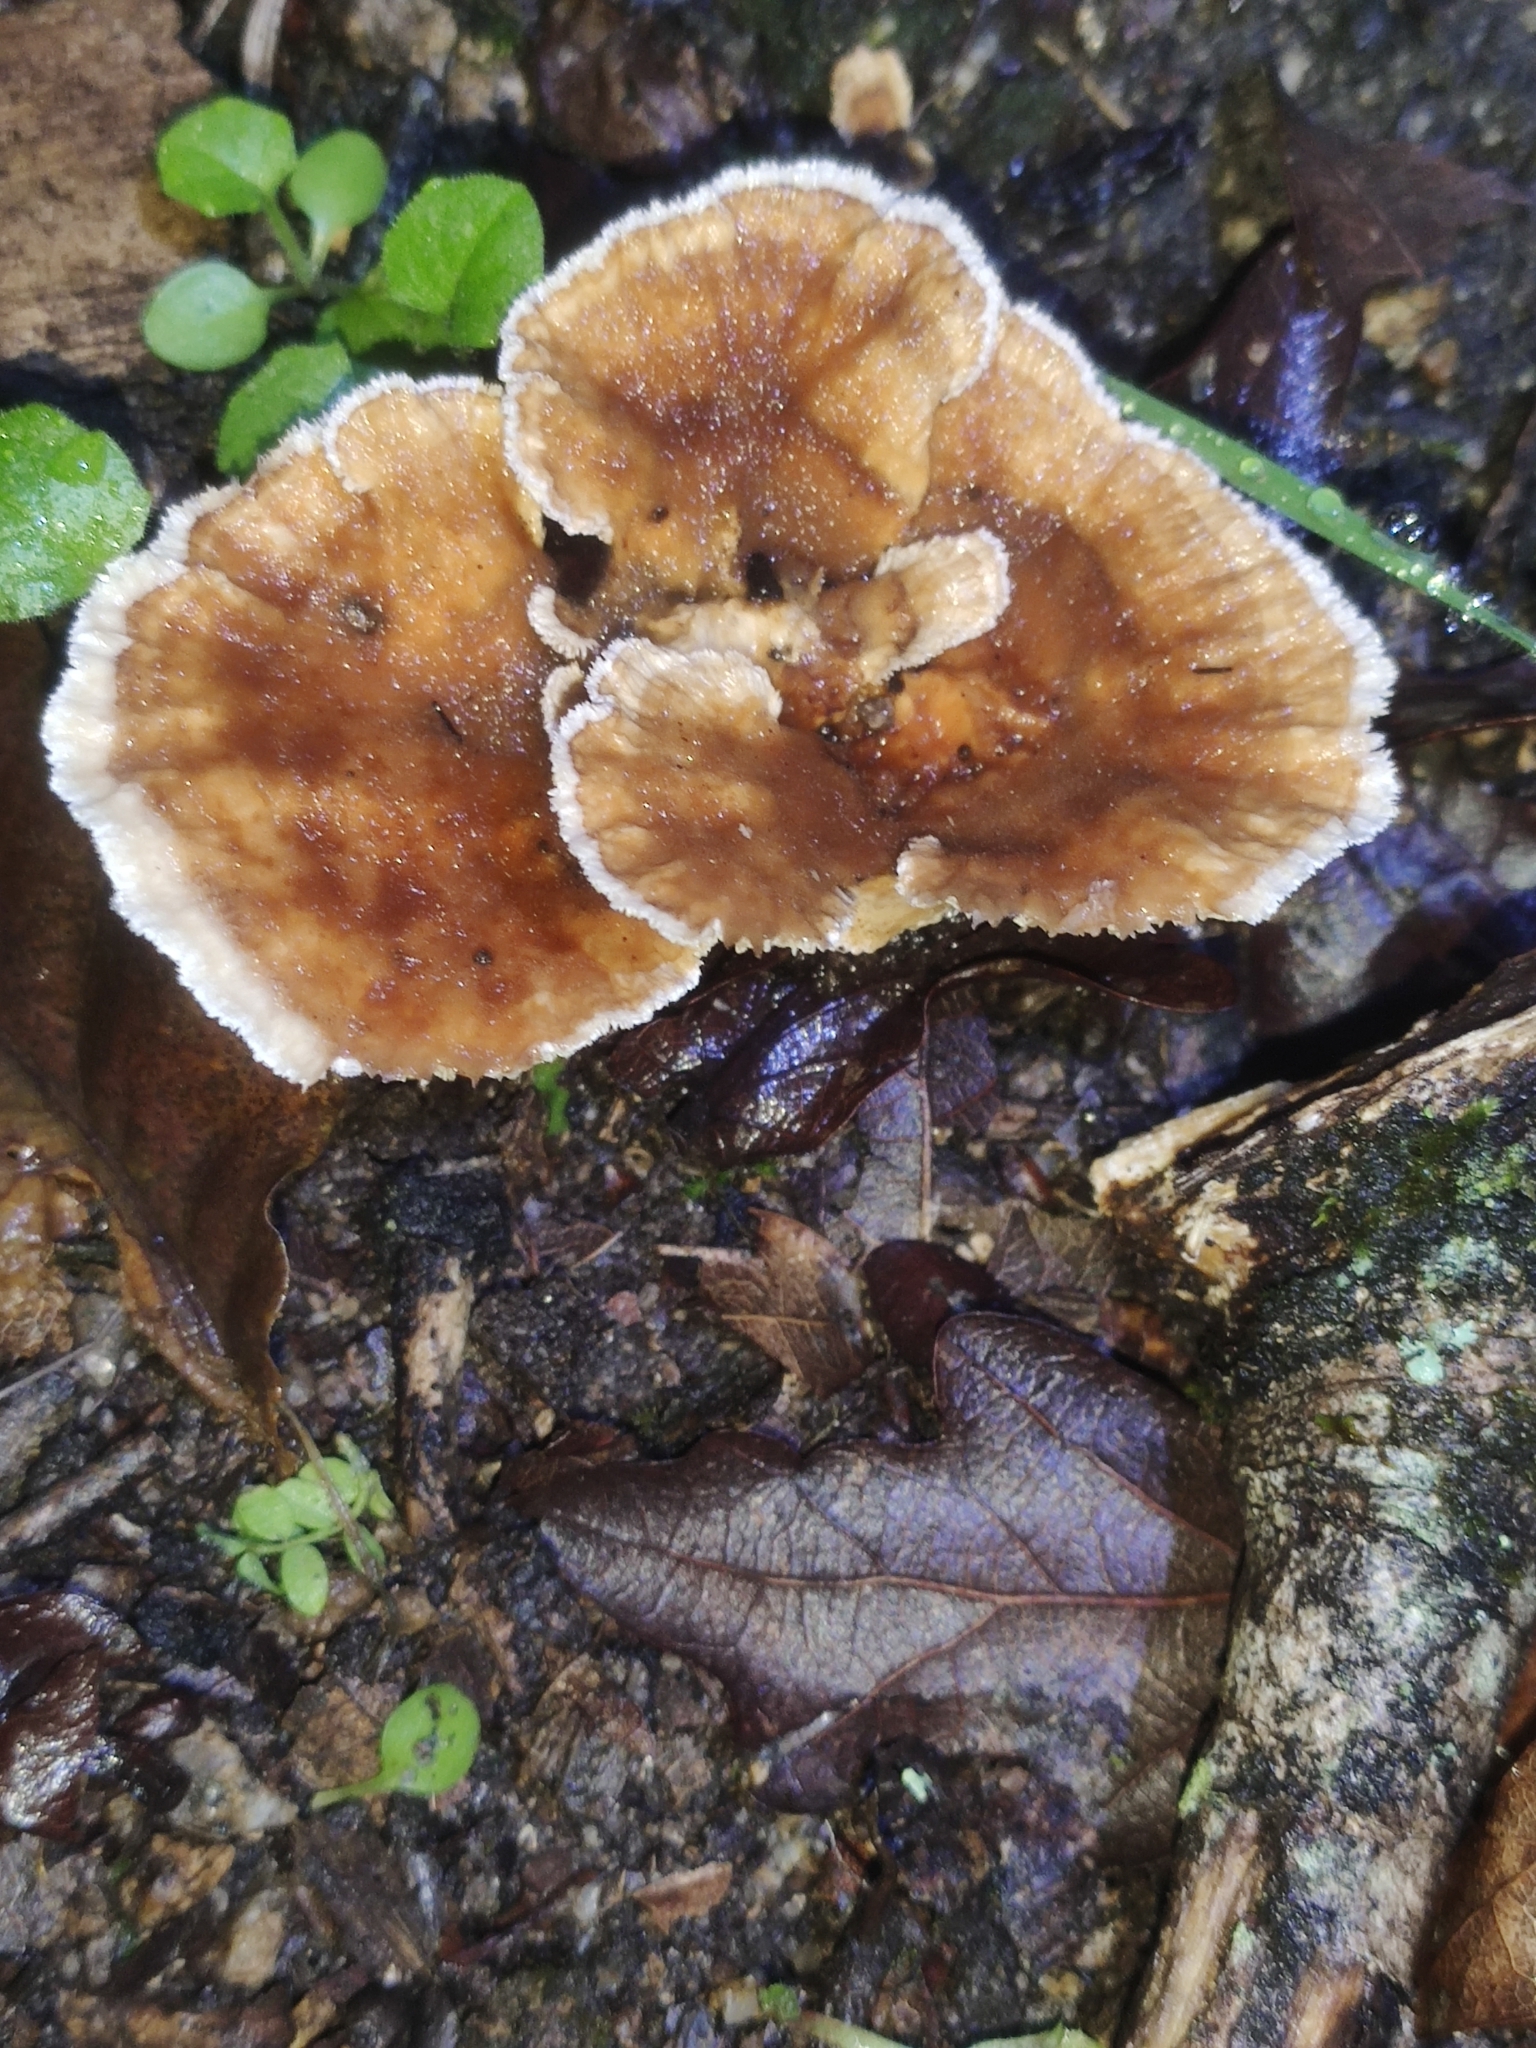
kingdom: Fungi
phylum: Basidiomycota
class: Agaricomycetes
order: Polyporales
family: Podoscyphaceae
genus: Abortiporus
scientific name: Abortiporus biennis
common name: Blushing rosette
